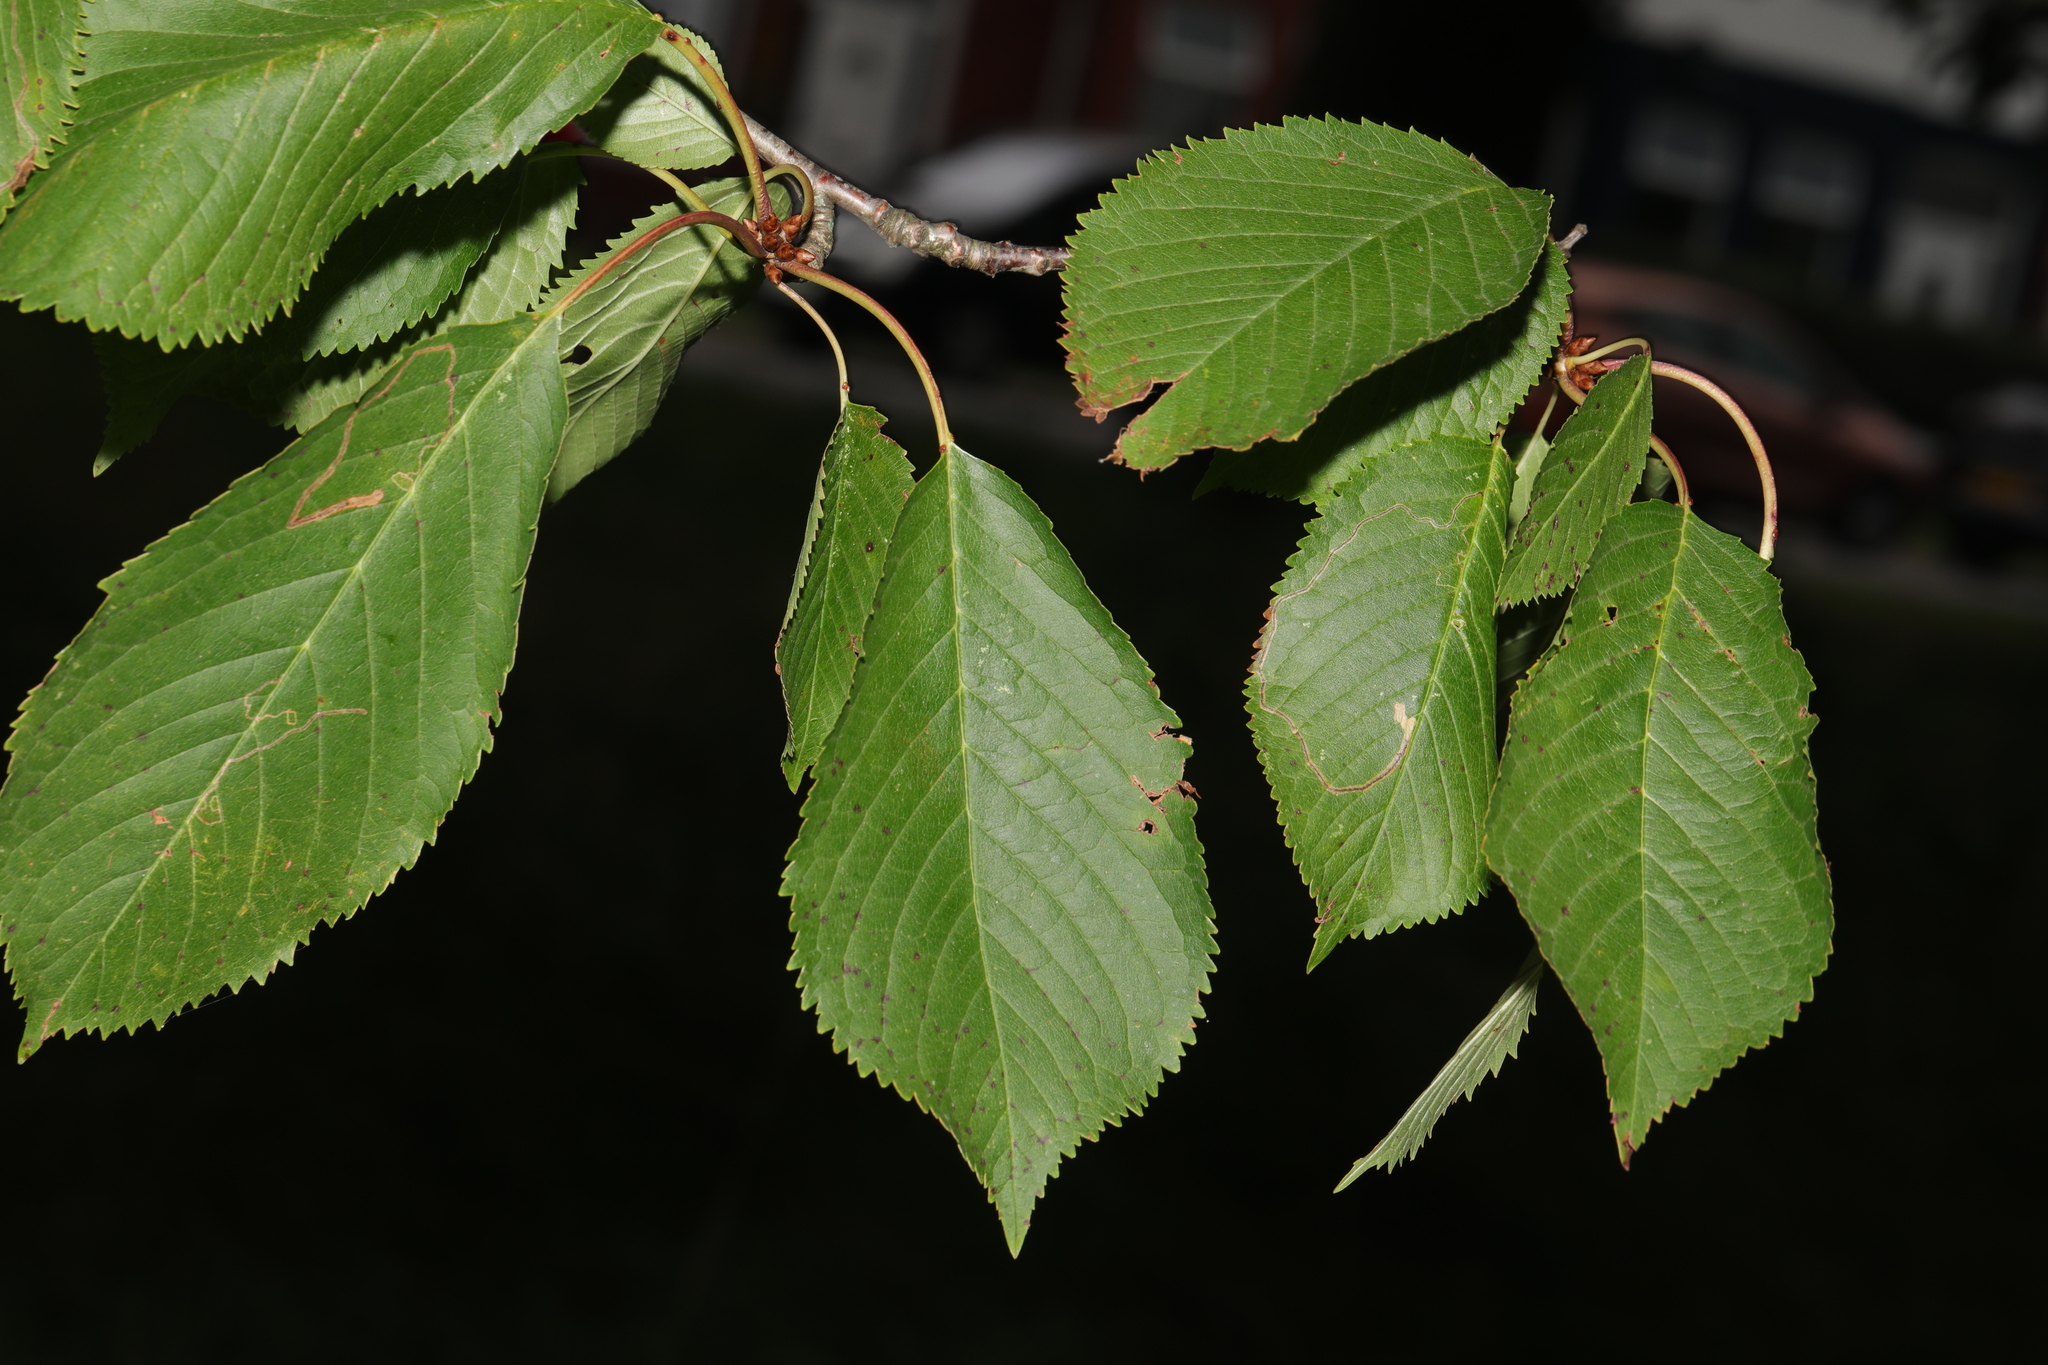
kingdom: Plantae
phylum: Tracheophyta
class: Magnoliopsida
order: Rosales
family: Rosaceae
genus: Prunus
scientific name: Prunus avium
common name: Sweet cherry
